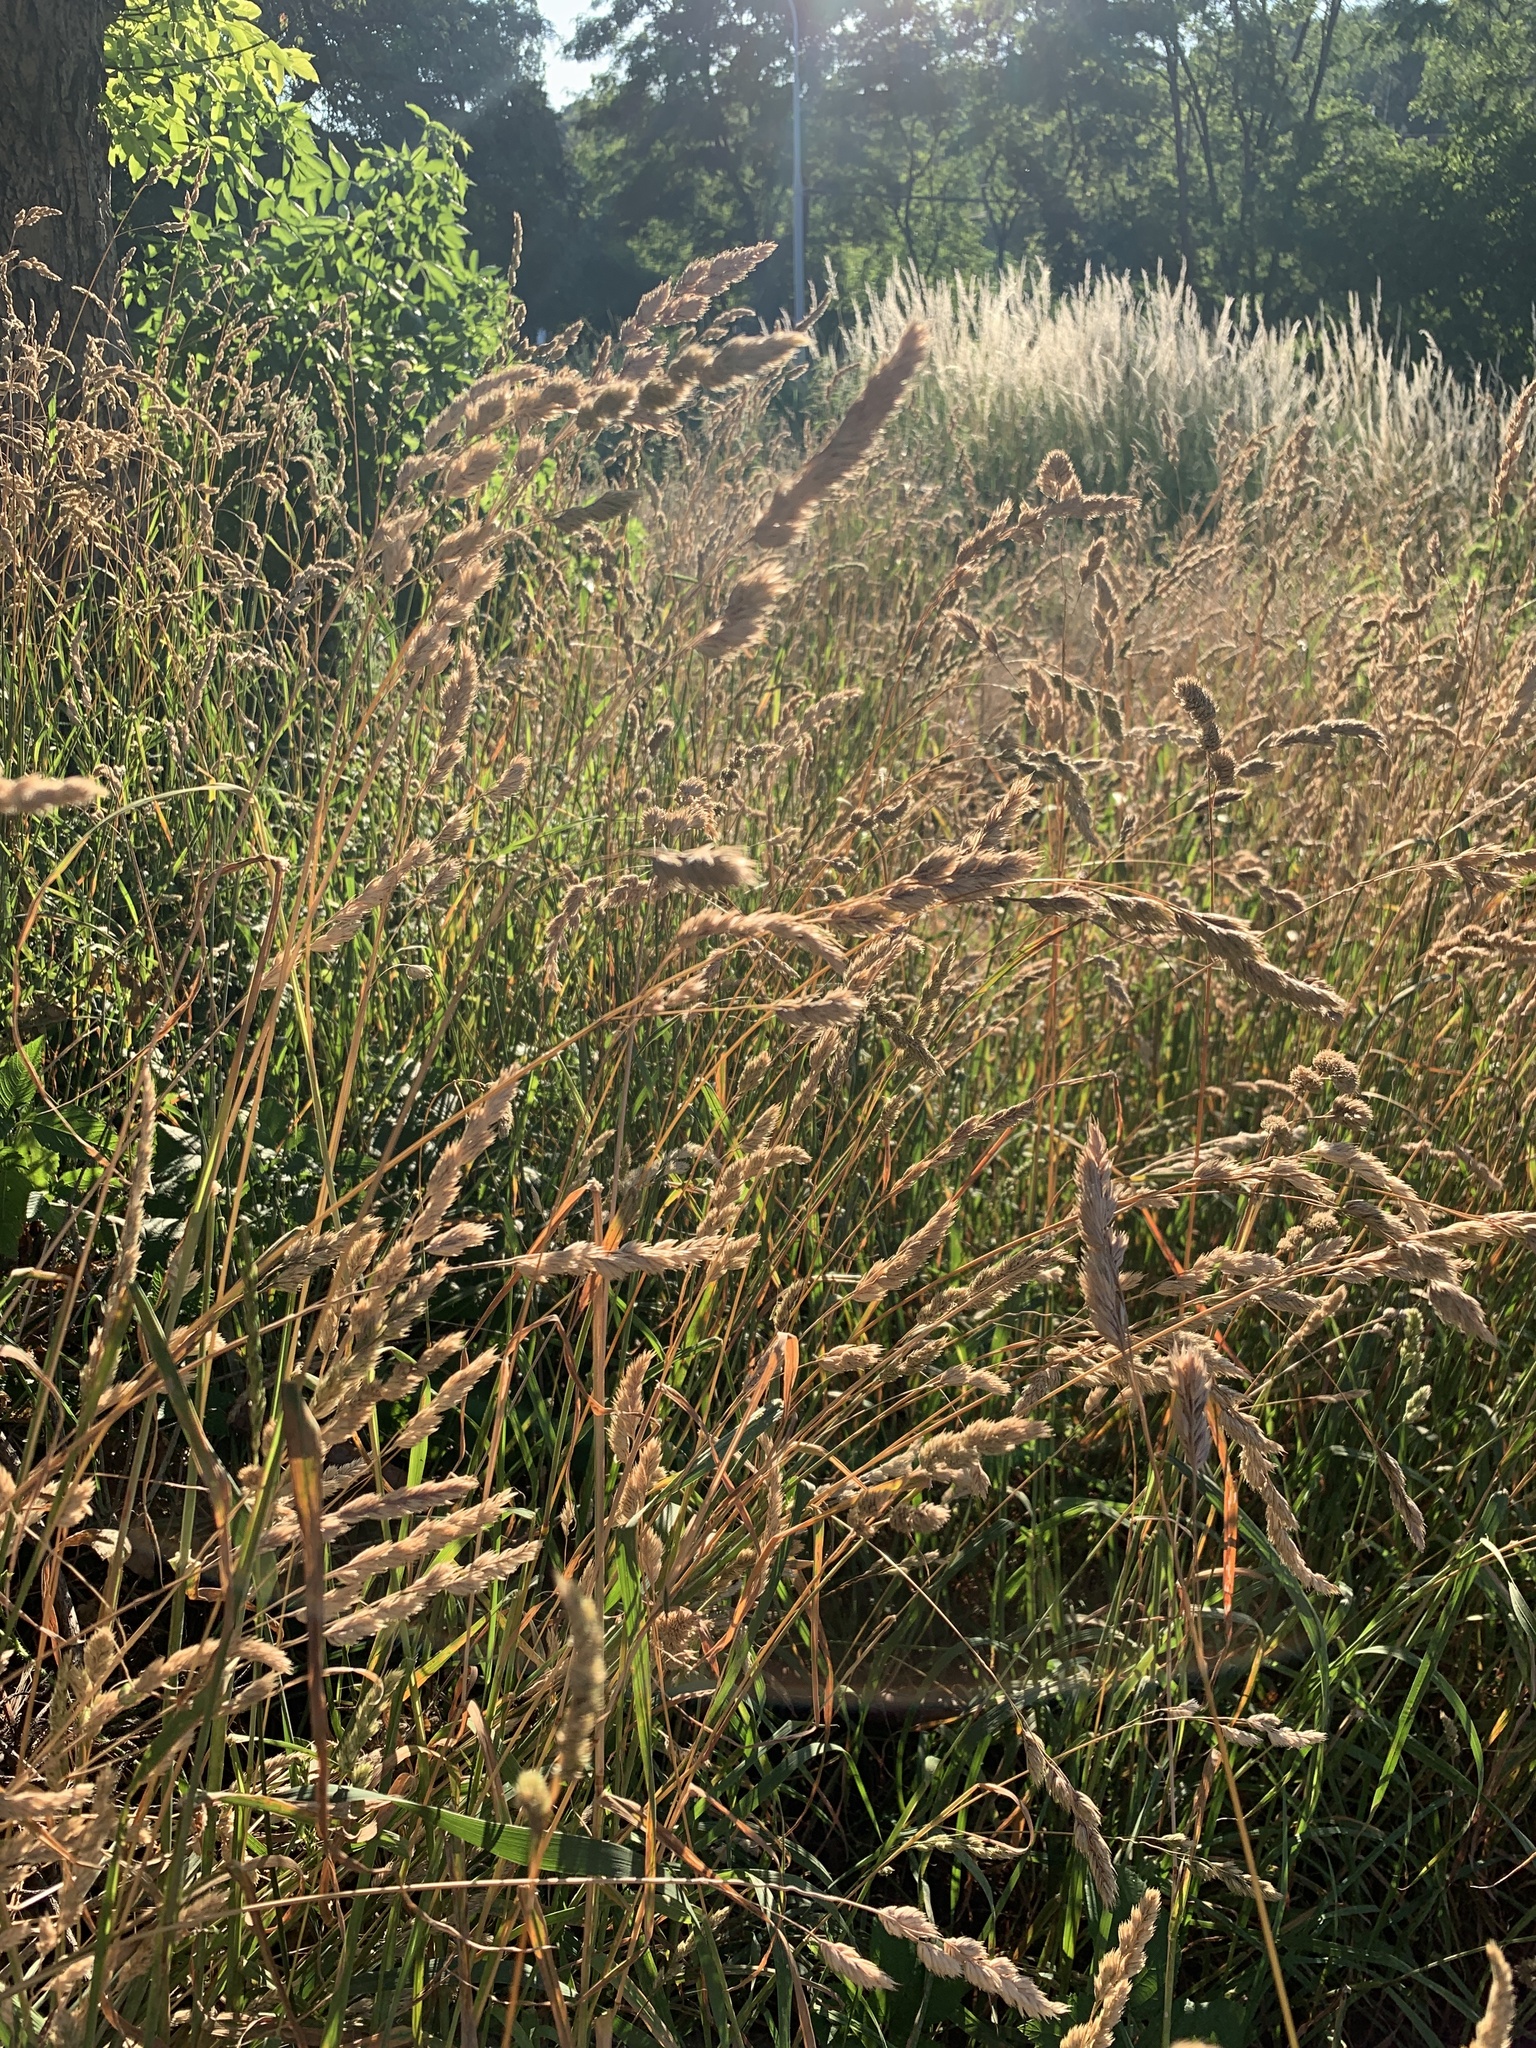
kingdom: Plantae
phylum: Tracheophyta
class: Liliopsida
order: Poales
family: Poaceae
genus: Dactylis
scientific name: Dactylis glomerata
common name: Orchardgrass
